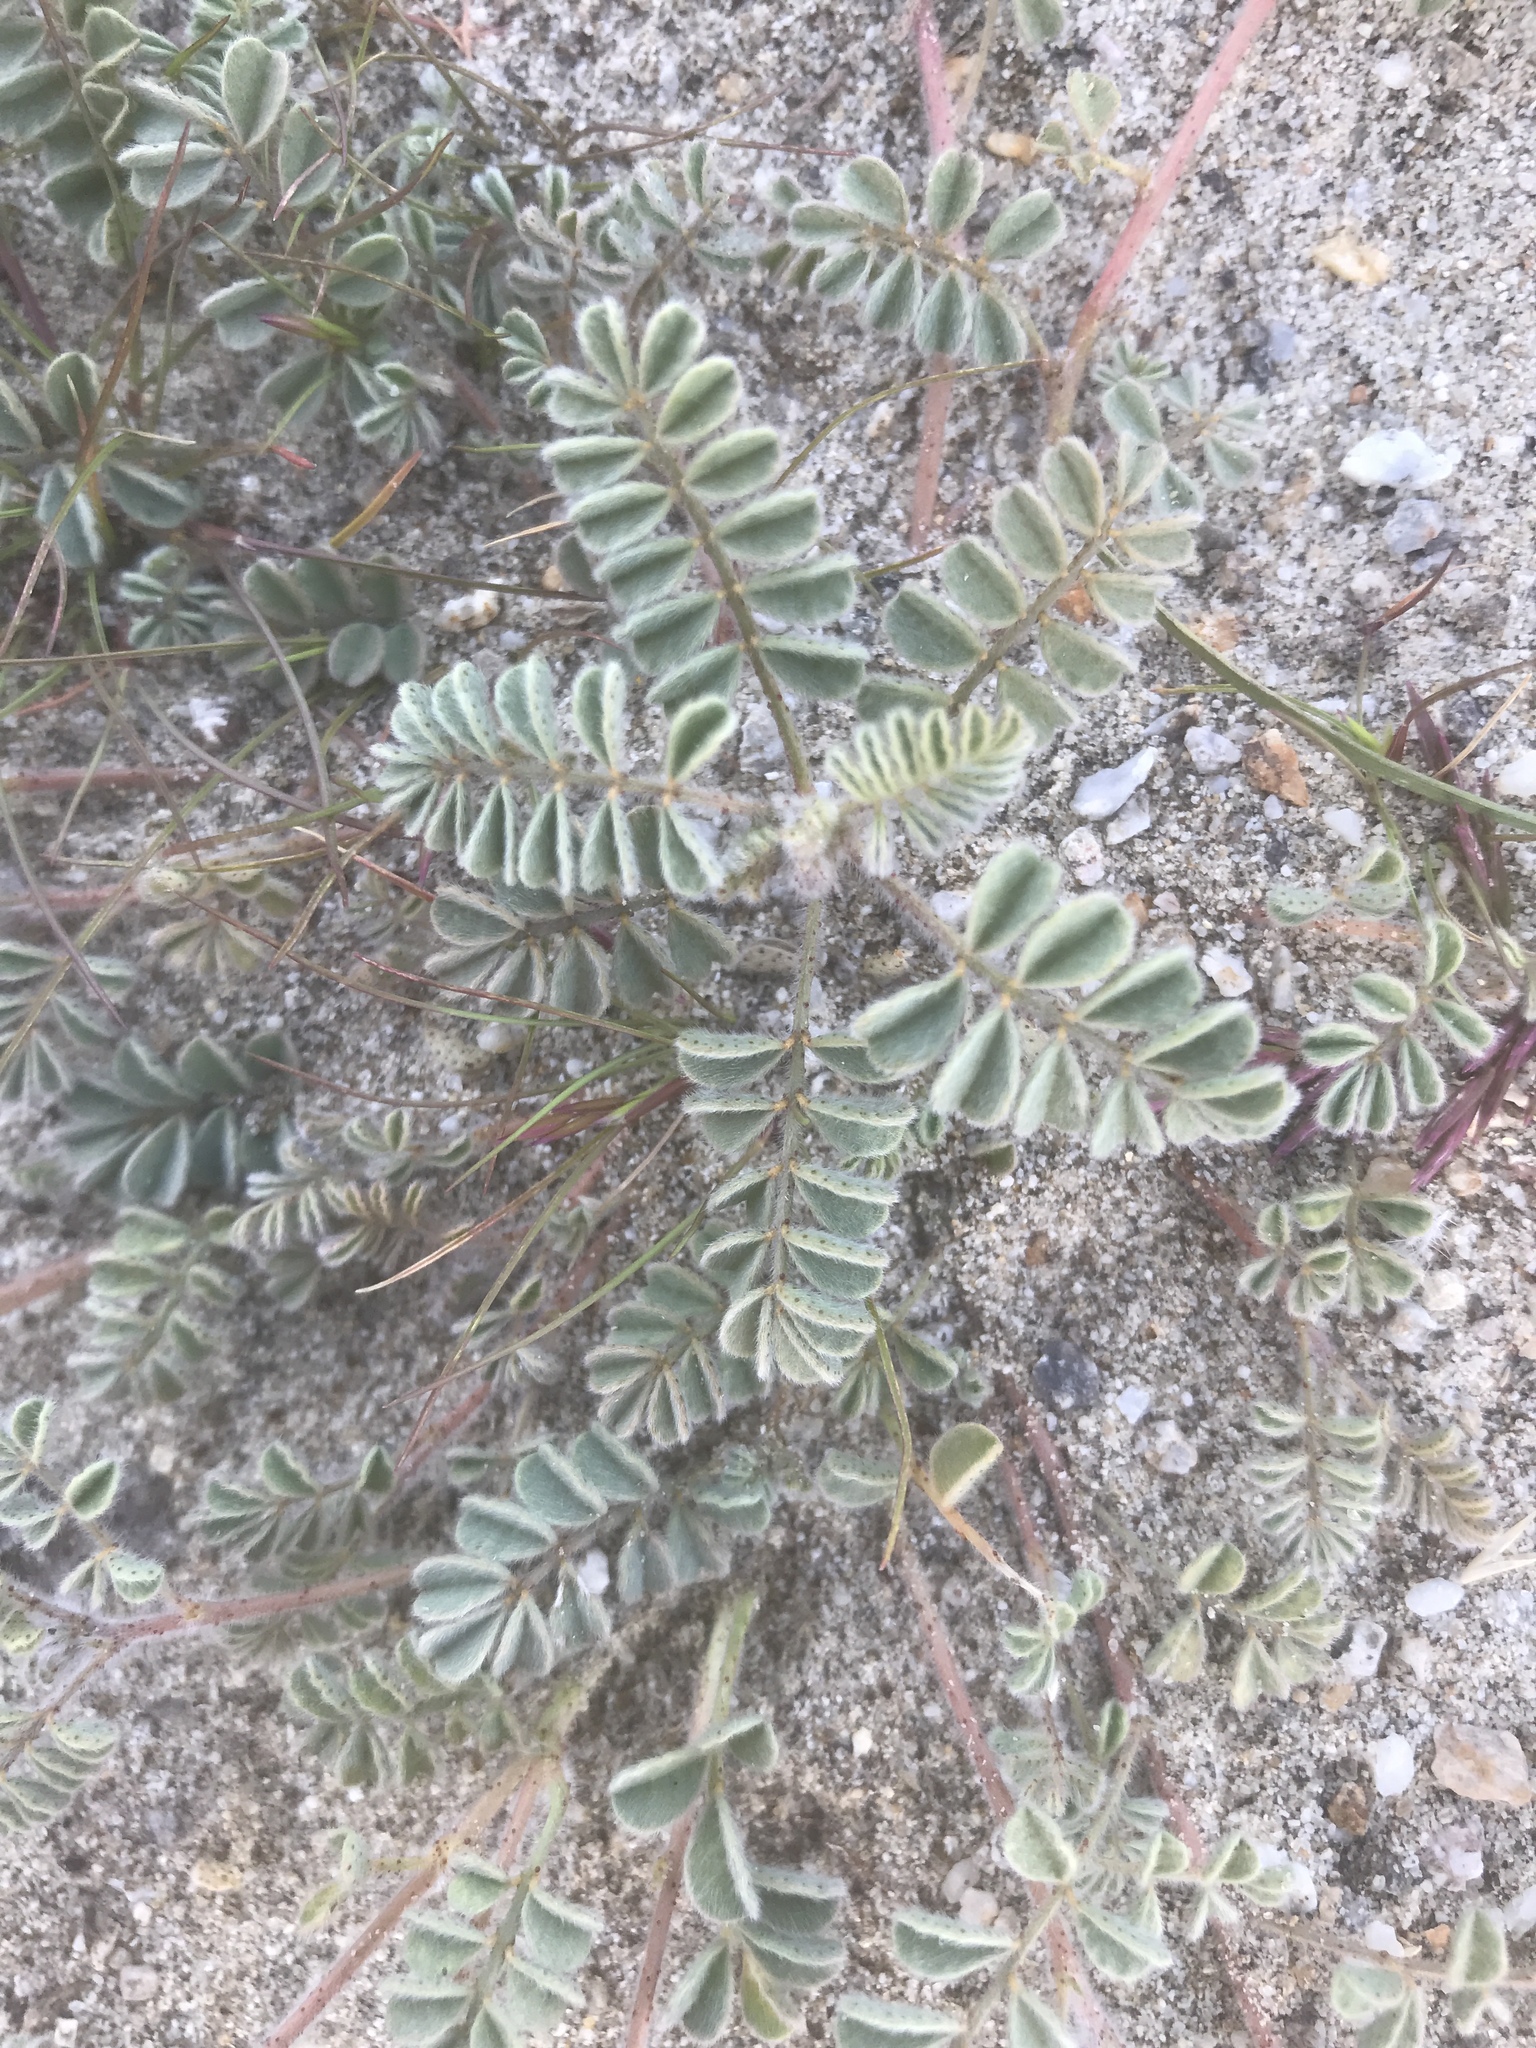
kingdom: Plantae
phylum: Tracheophyta
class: Magnoliopsida
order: Fabales
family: Fabaceae
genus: Dalea
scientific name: Dalea mollis
